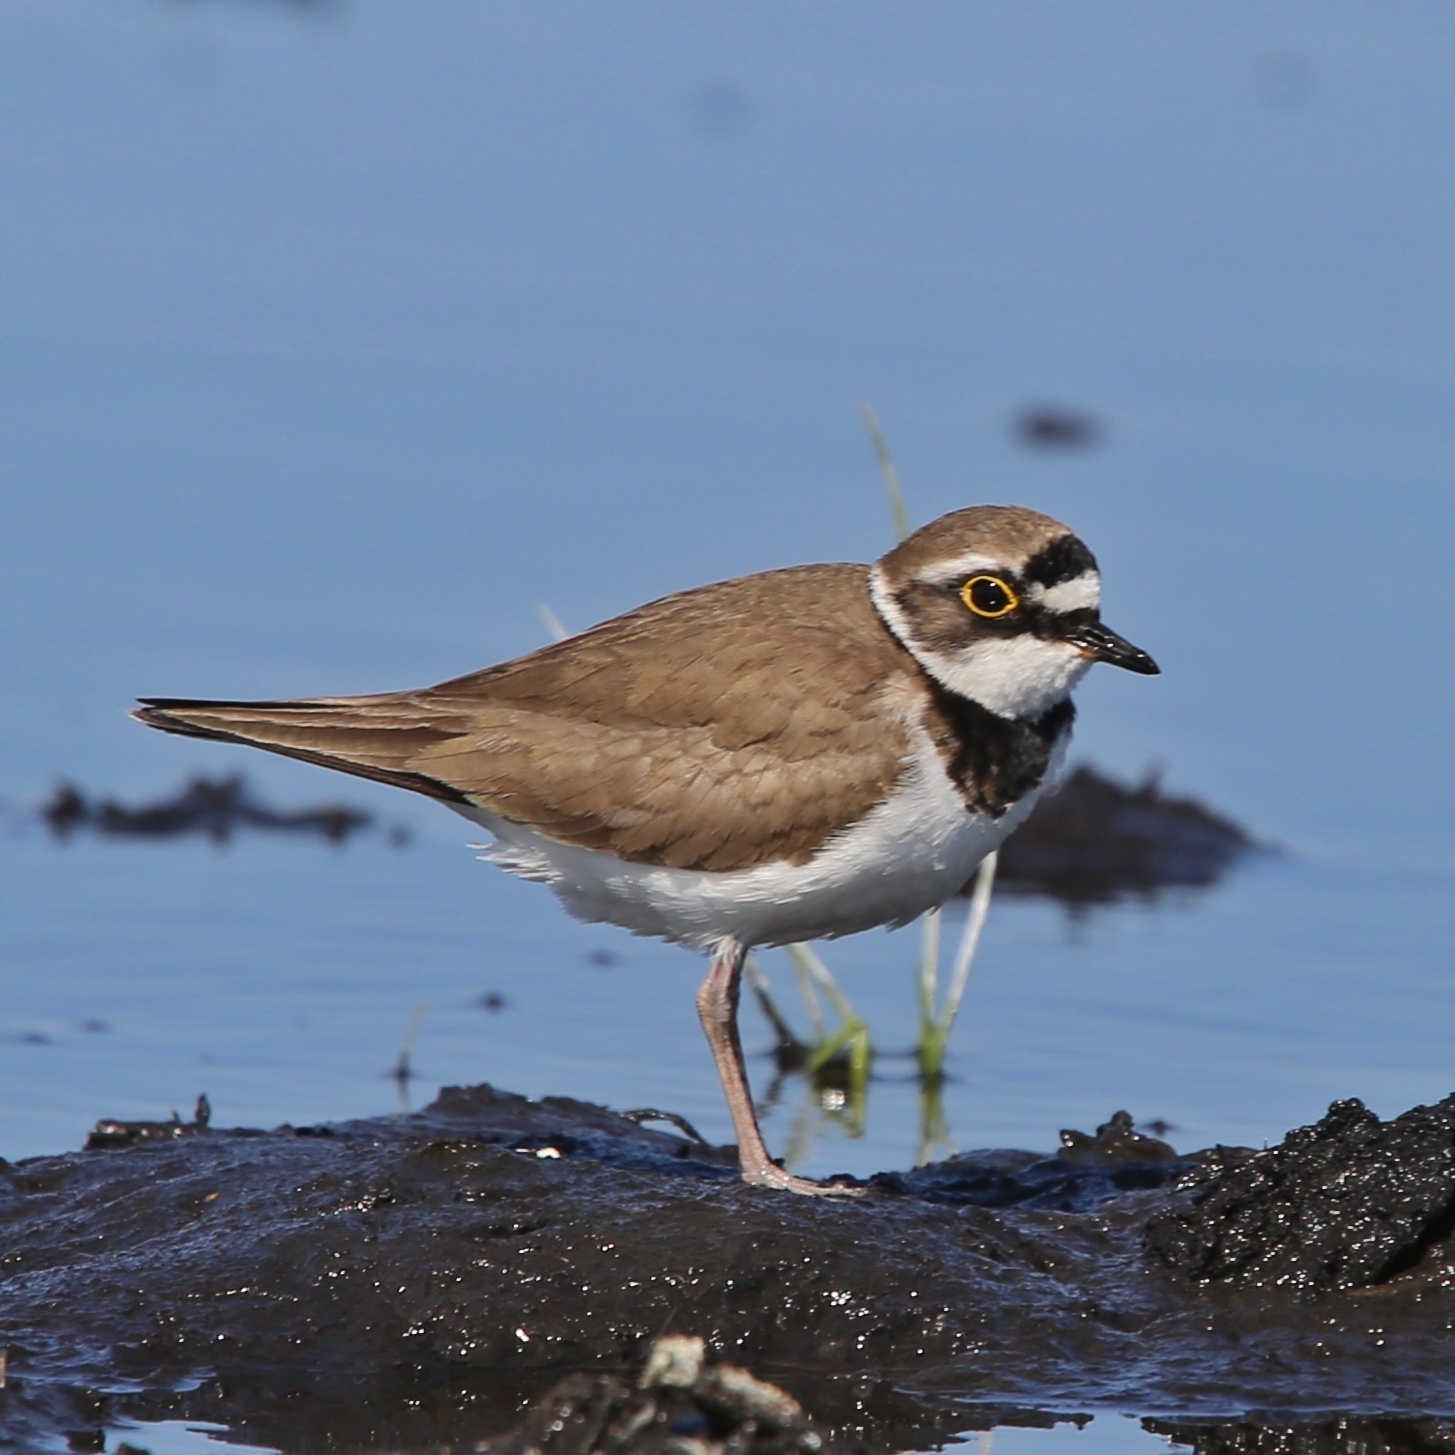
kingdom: Animalia
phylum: Chordata
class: Aves
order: Charadriiformes
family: Charadriidae
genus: Charadrius
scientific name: Charadrius dubius
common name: Little ringed plover
